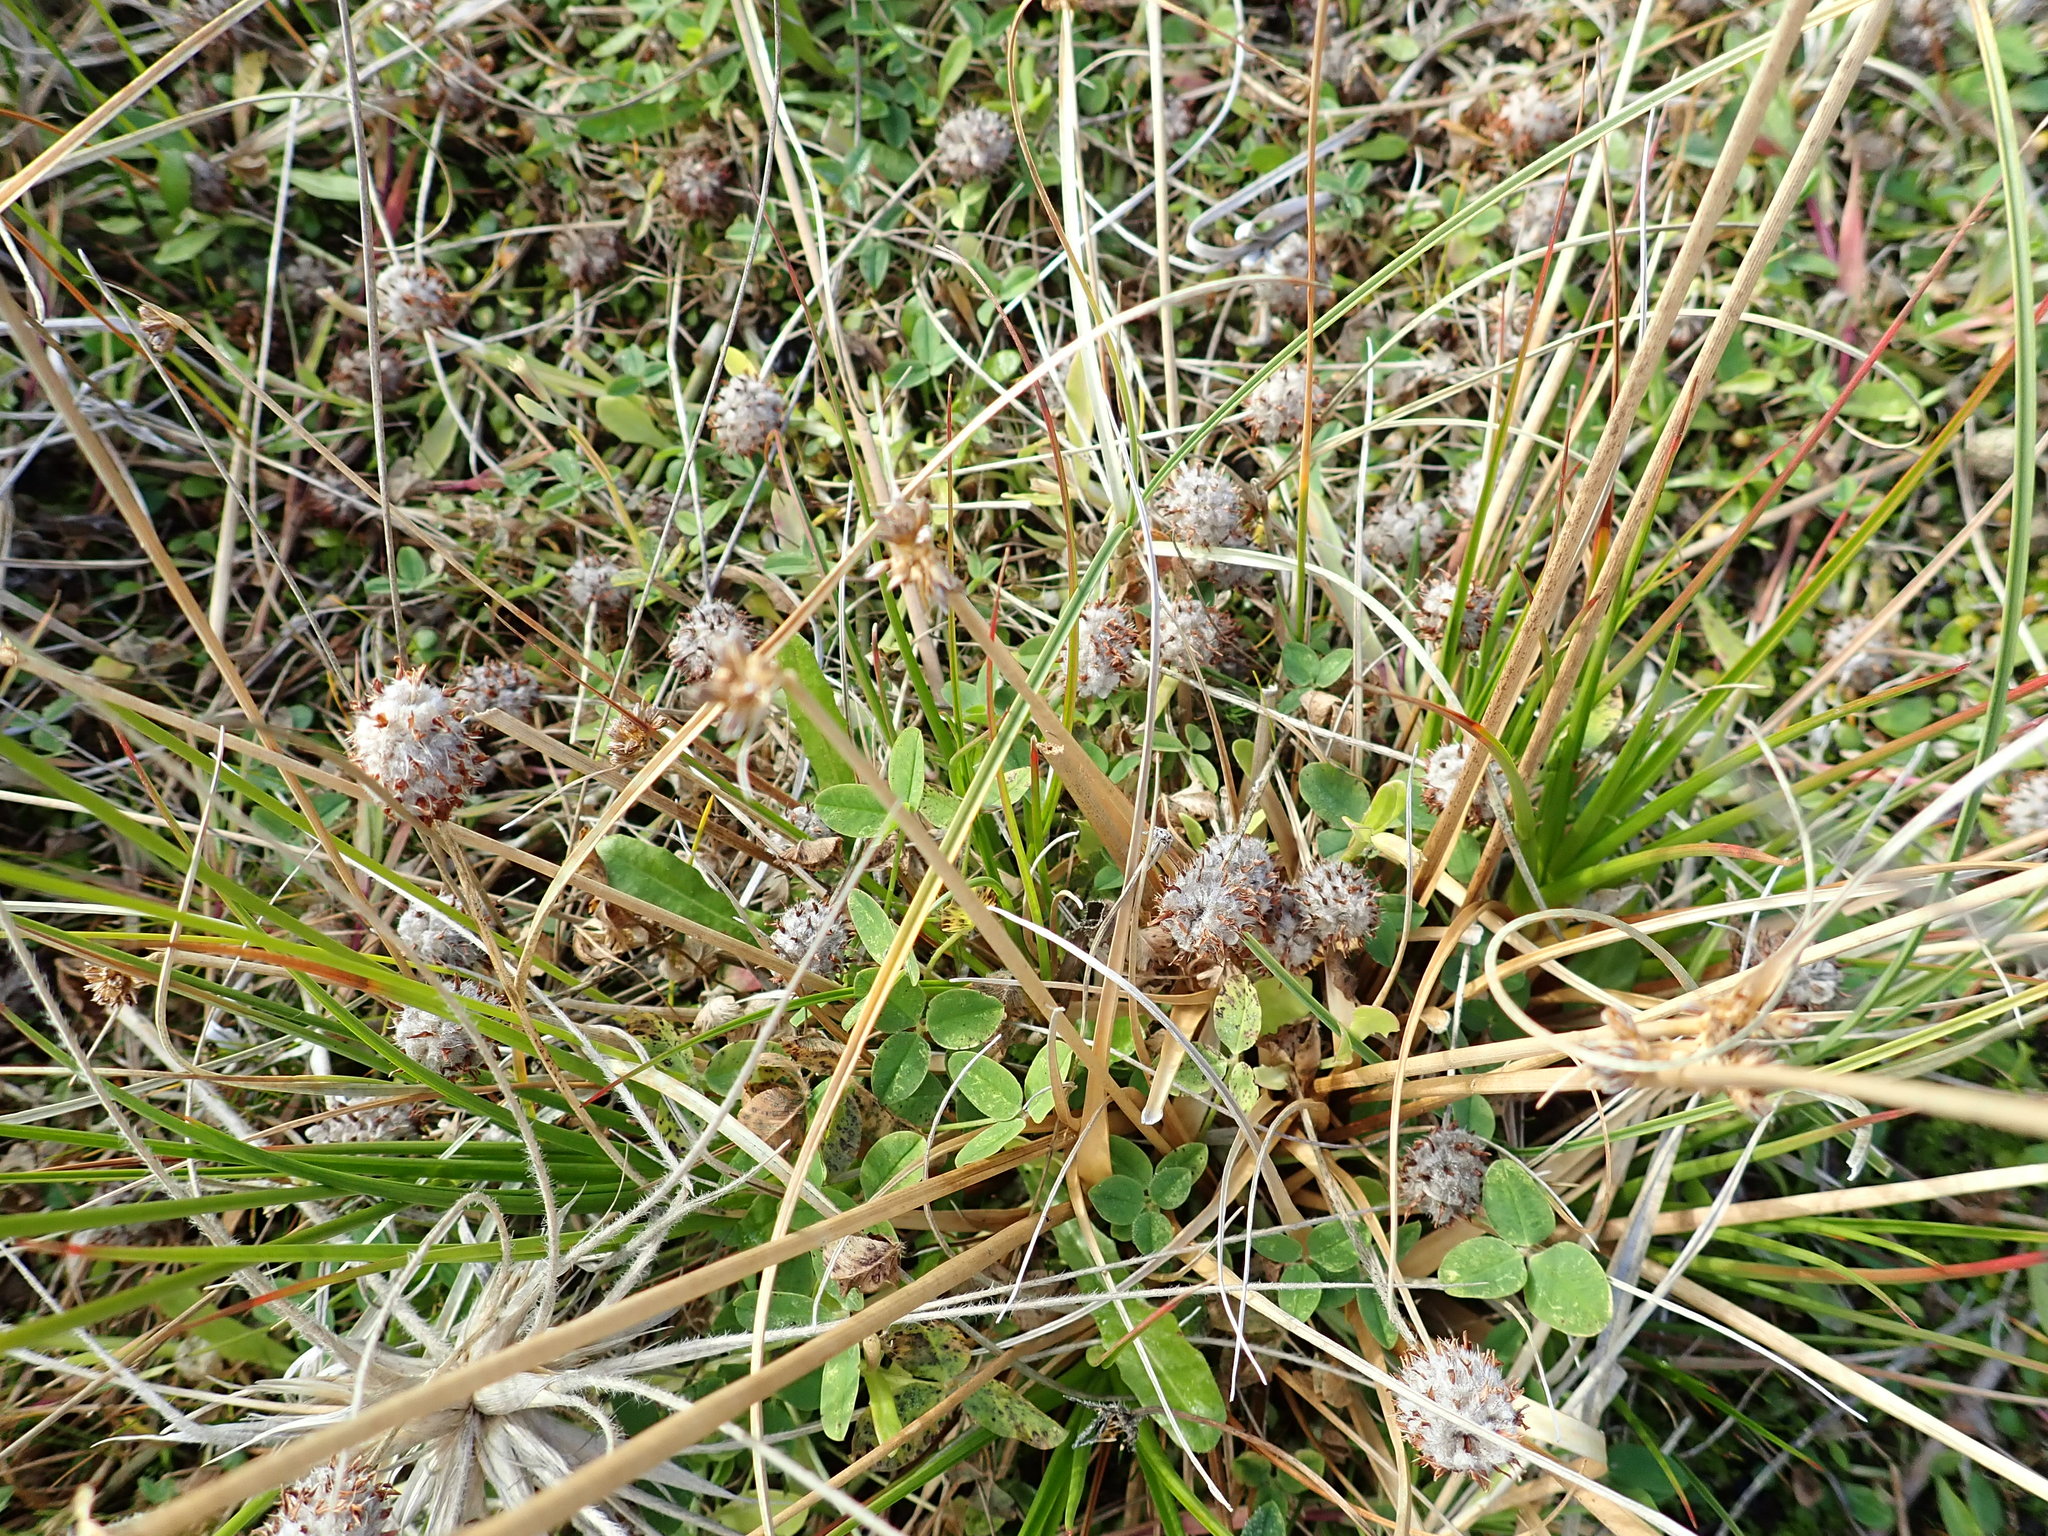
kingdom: Plantae
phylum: Tracheophyta
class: Magnoliopsida
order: Fabales
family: Fabaceae
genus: Trifolium
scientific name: Trifolium fragiferum
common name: Strawberry clover
